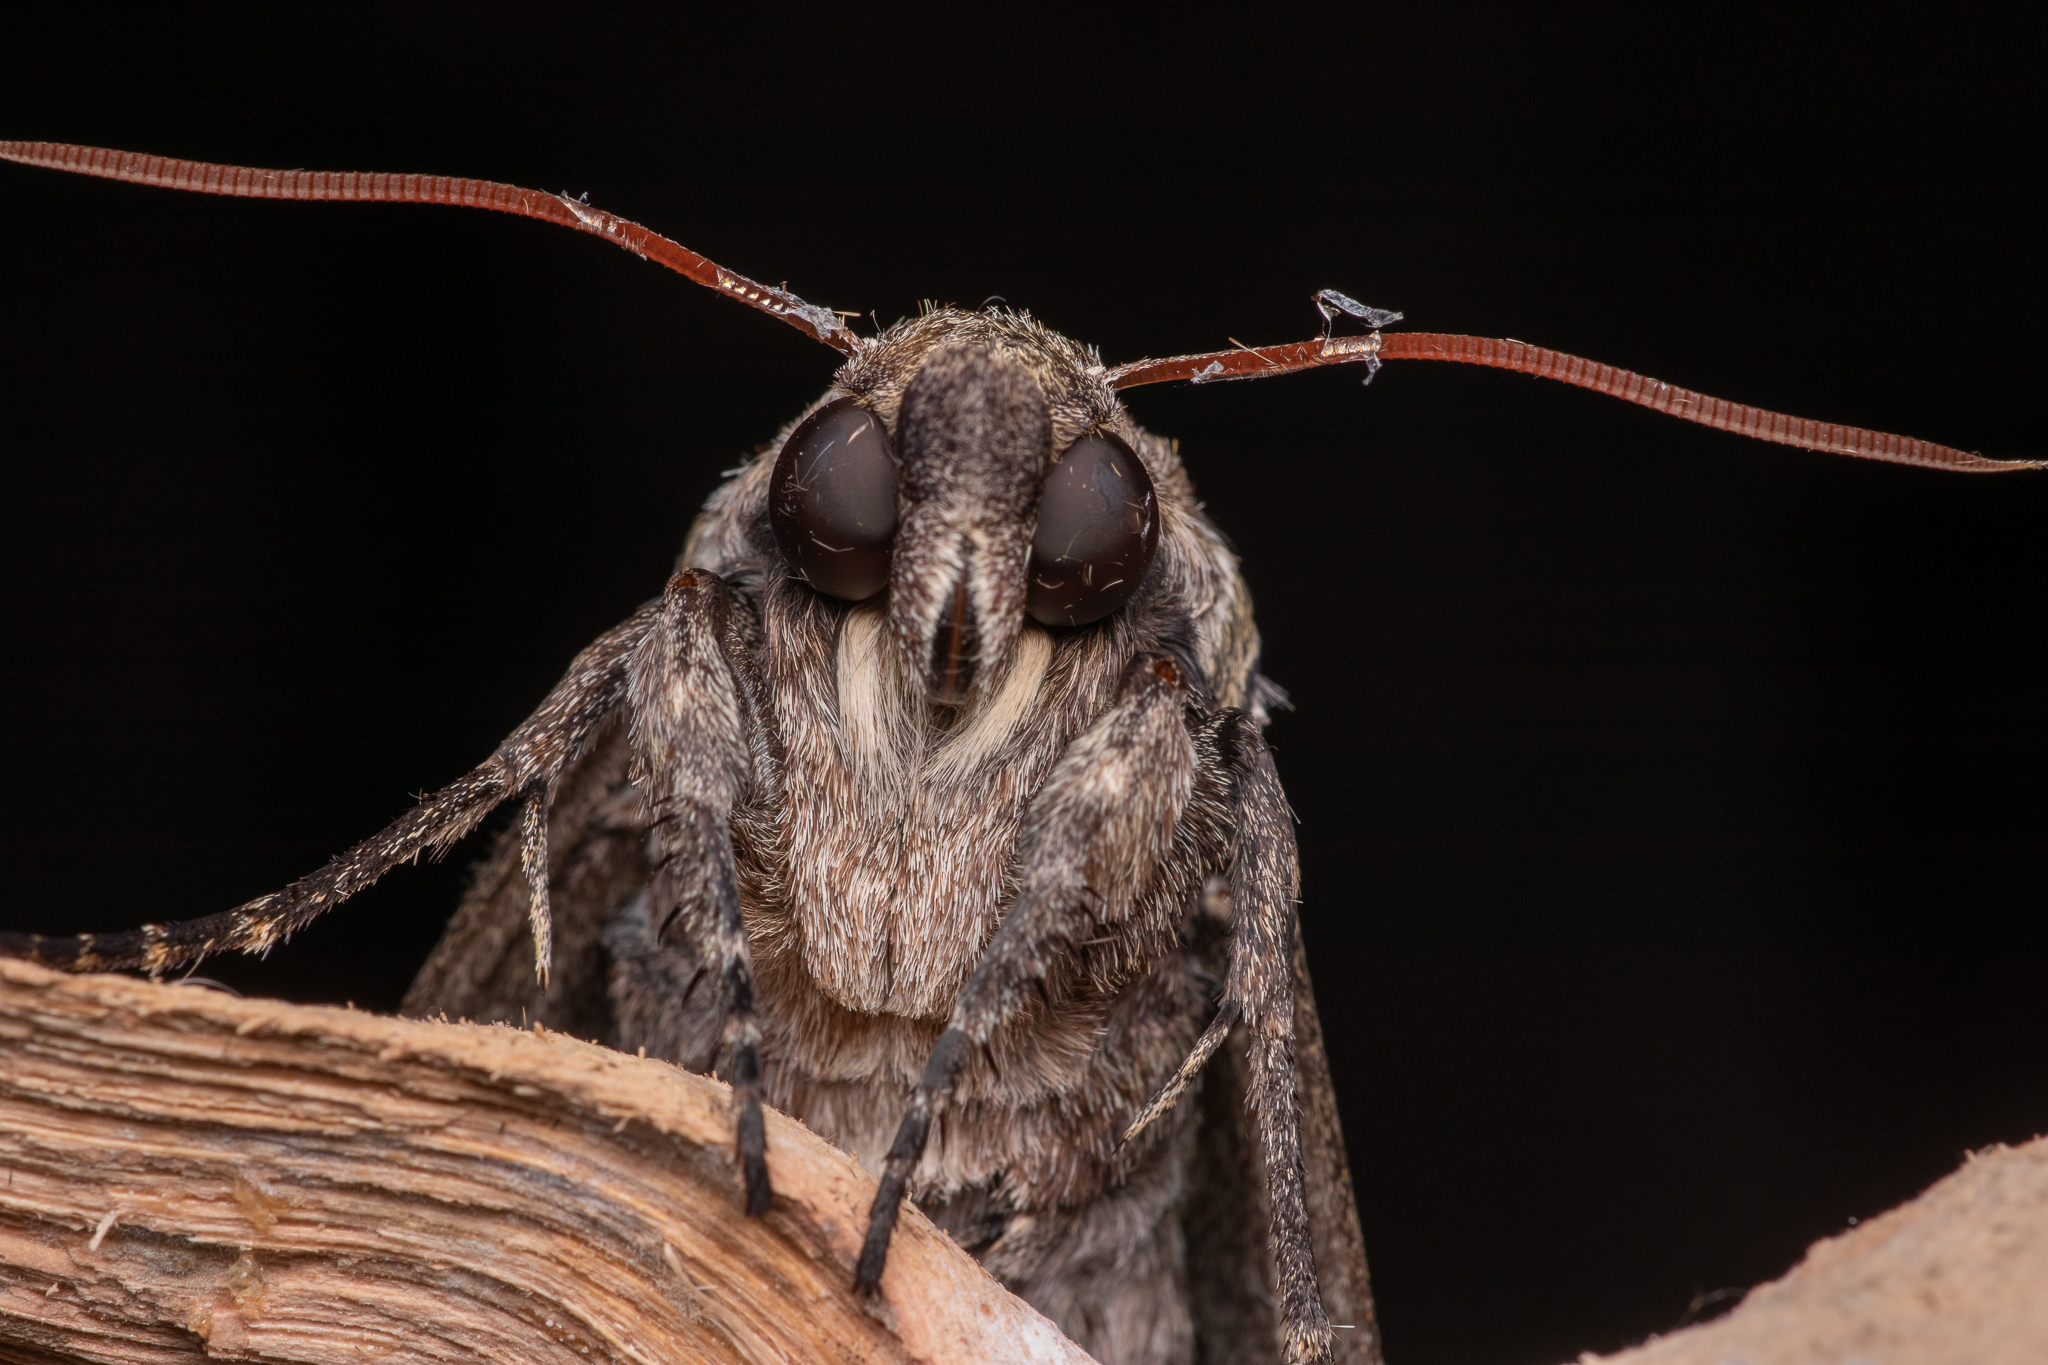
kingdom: Animalia
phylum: Arthropoda
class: Insecta
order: Lepidoptera
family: Sphingidae
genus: Manduca
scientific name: Manduca sexta
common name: Carolina sphinx
